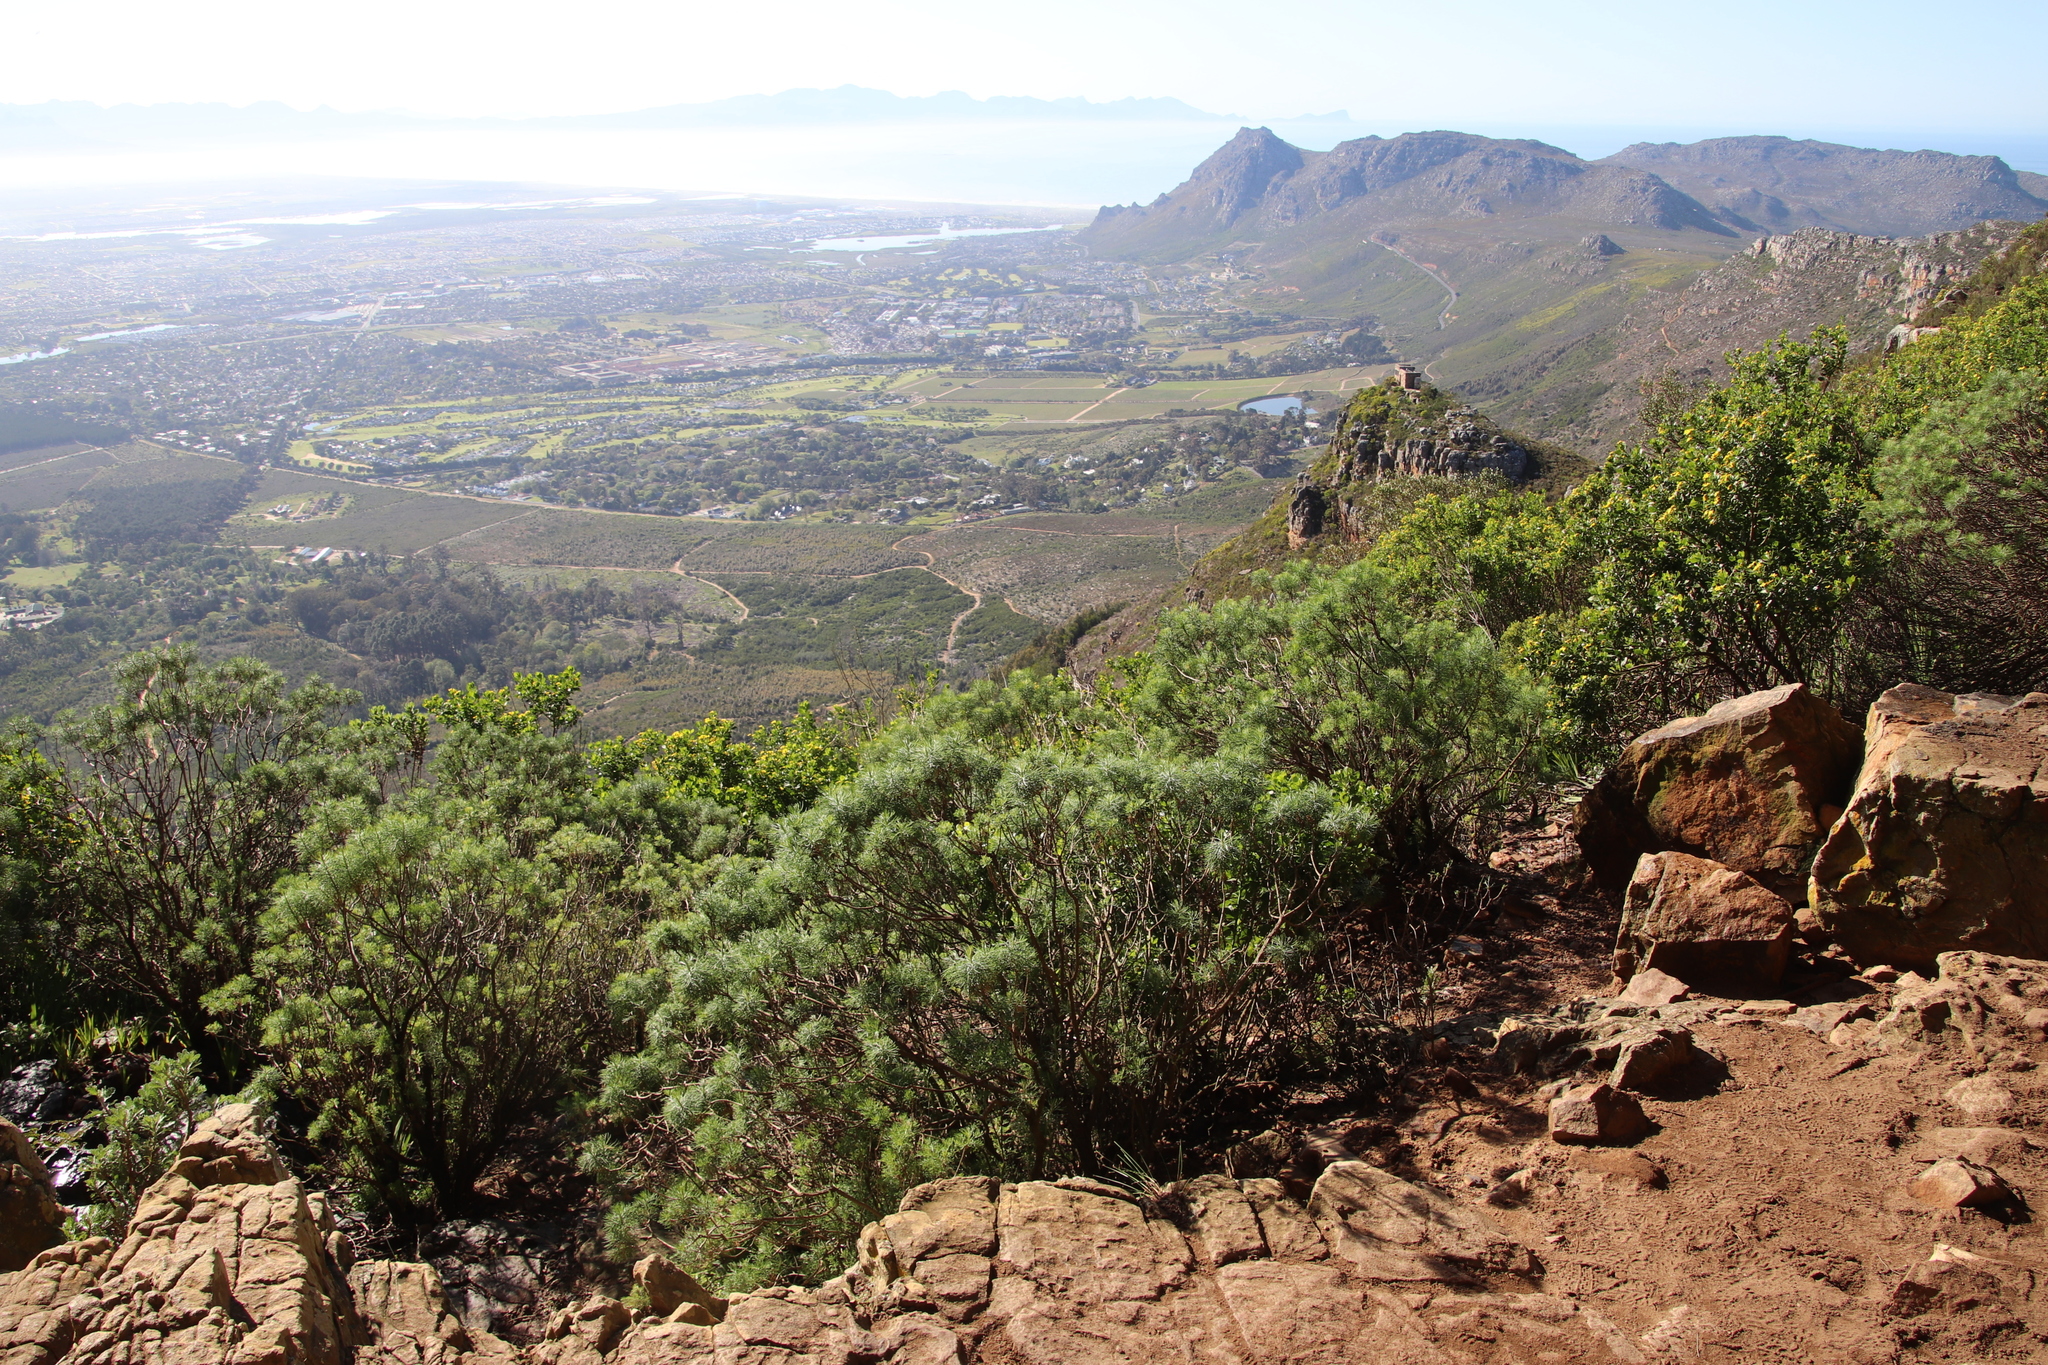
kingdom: Plantae
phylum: Tracheophyta
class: Magnoliopsida
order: Asterales
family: Asteraceae
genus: Athanasia
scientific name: Athanasia crithmifolia
